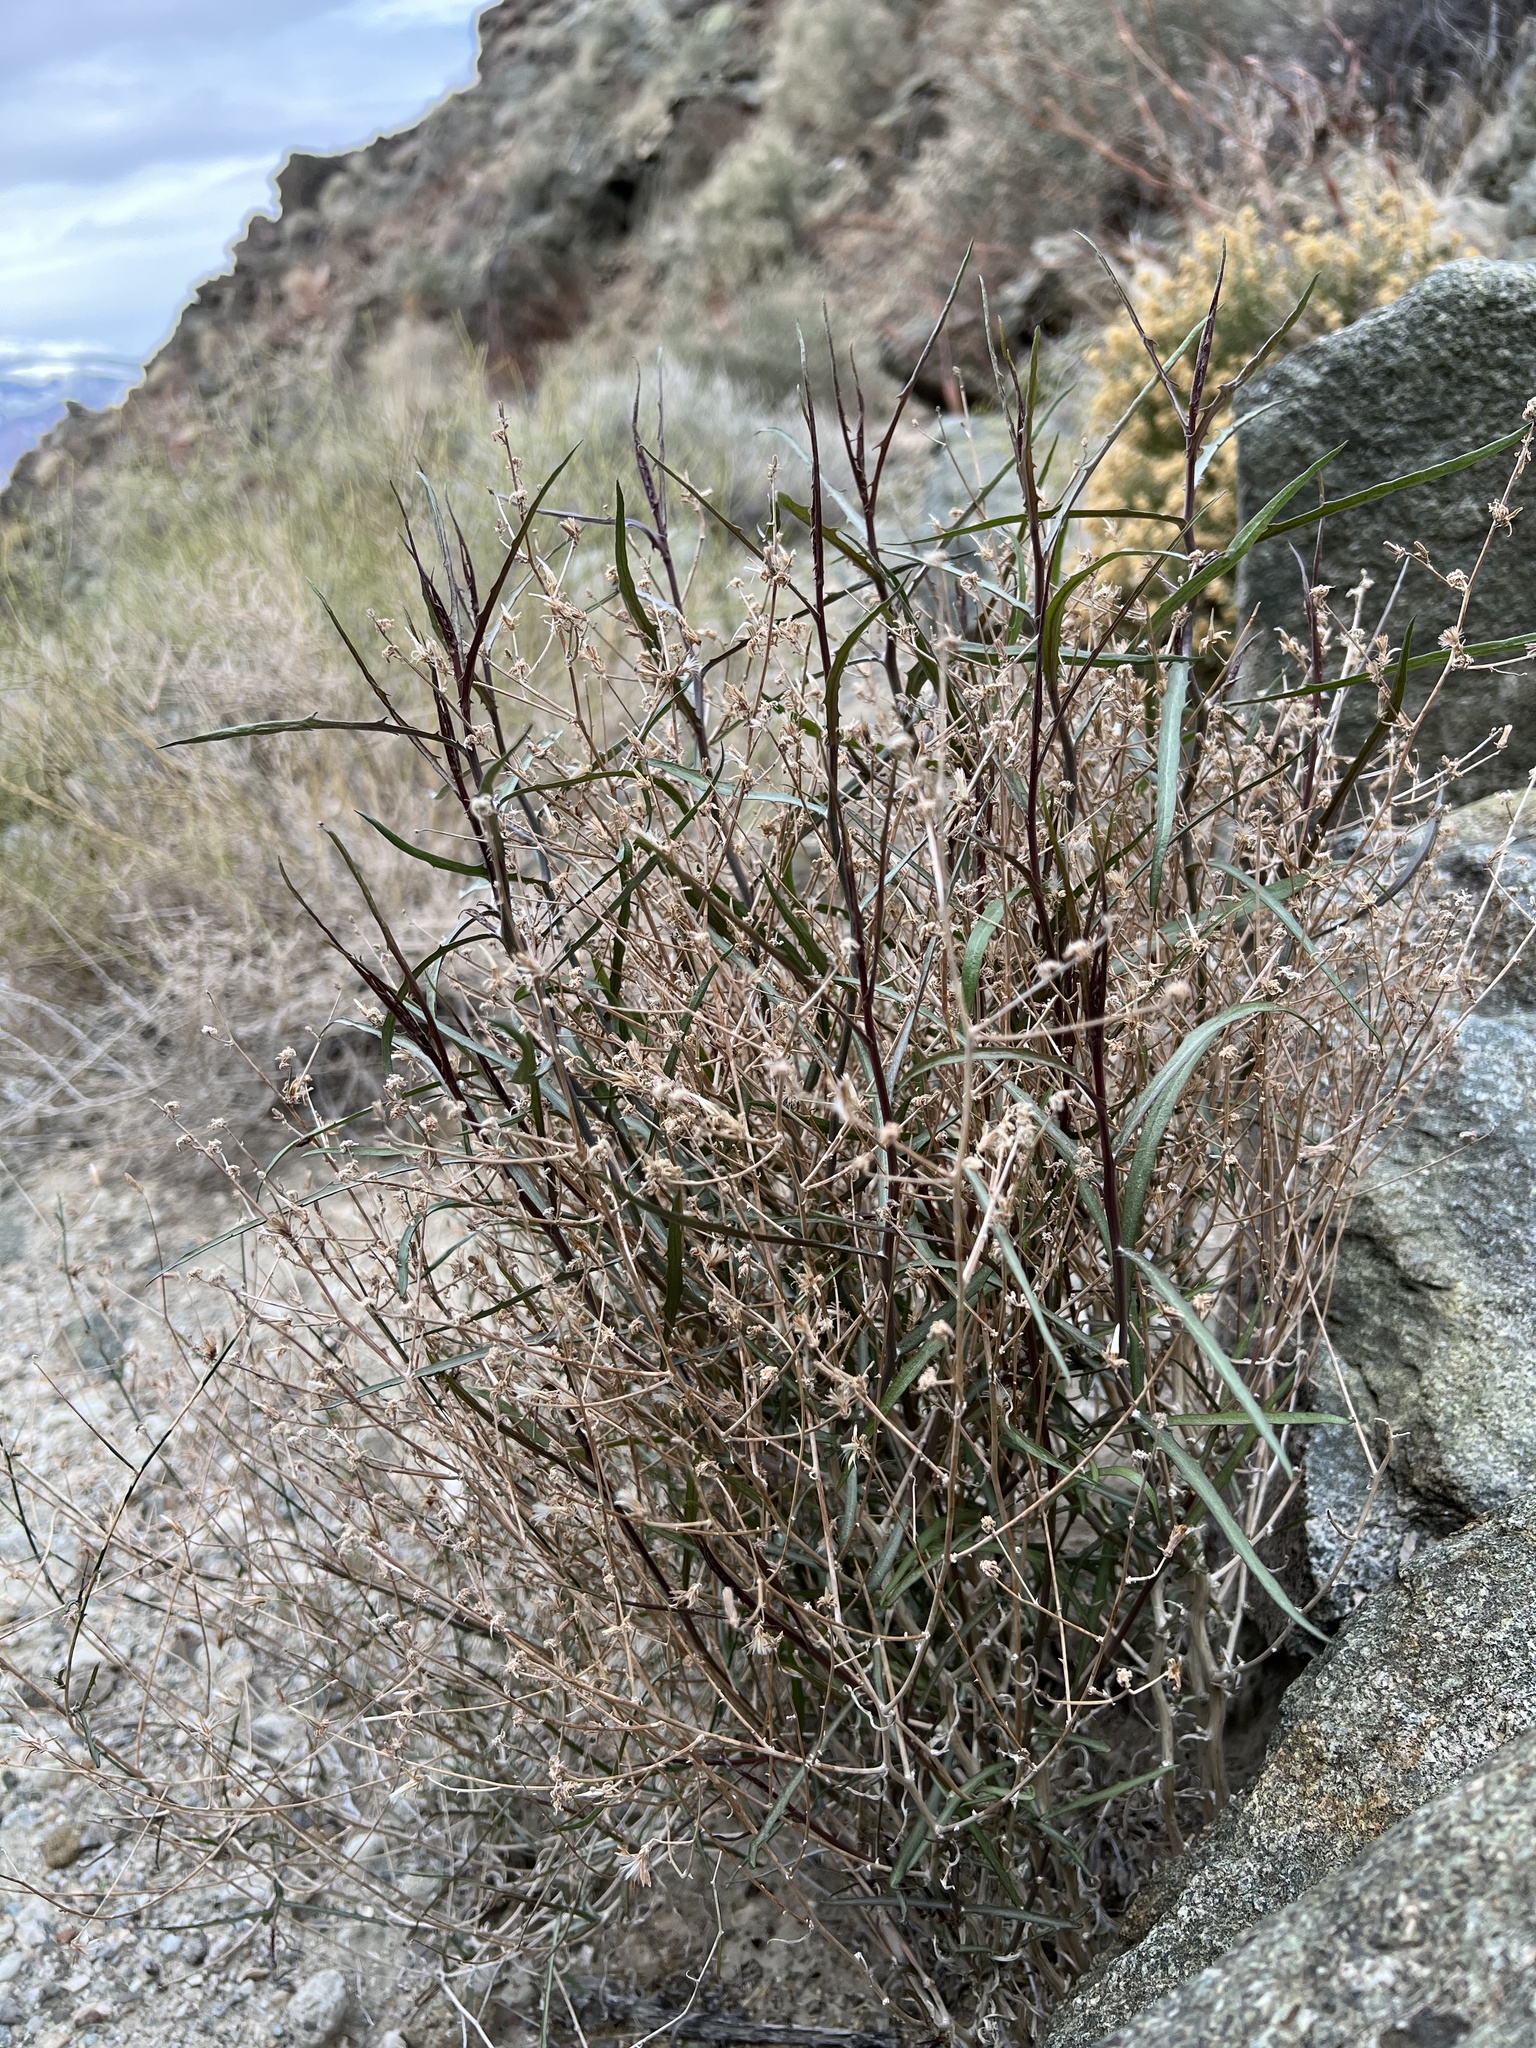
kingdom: Plantae
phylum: Tracheophyta
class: Magnoliopsida
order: Asterales
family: Asteraceae
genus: Stephanomeria
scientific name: Stephanomeria pauciflora
